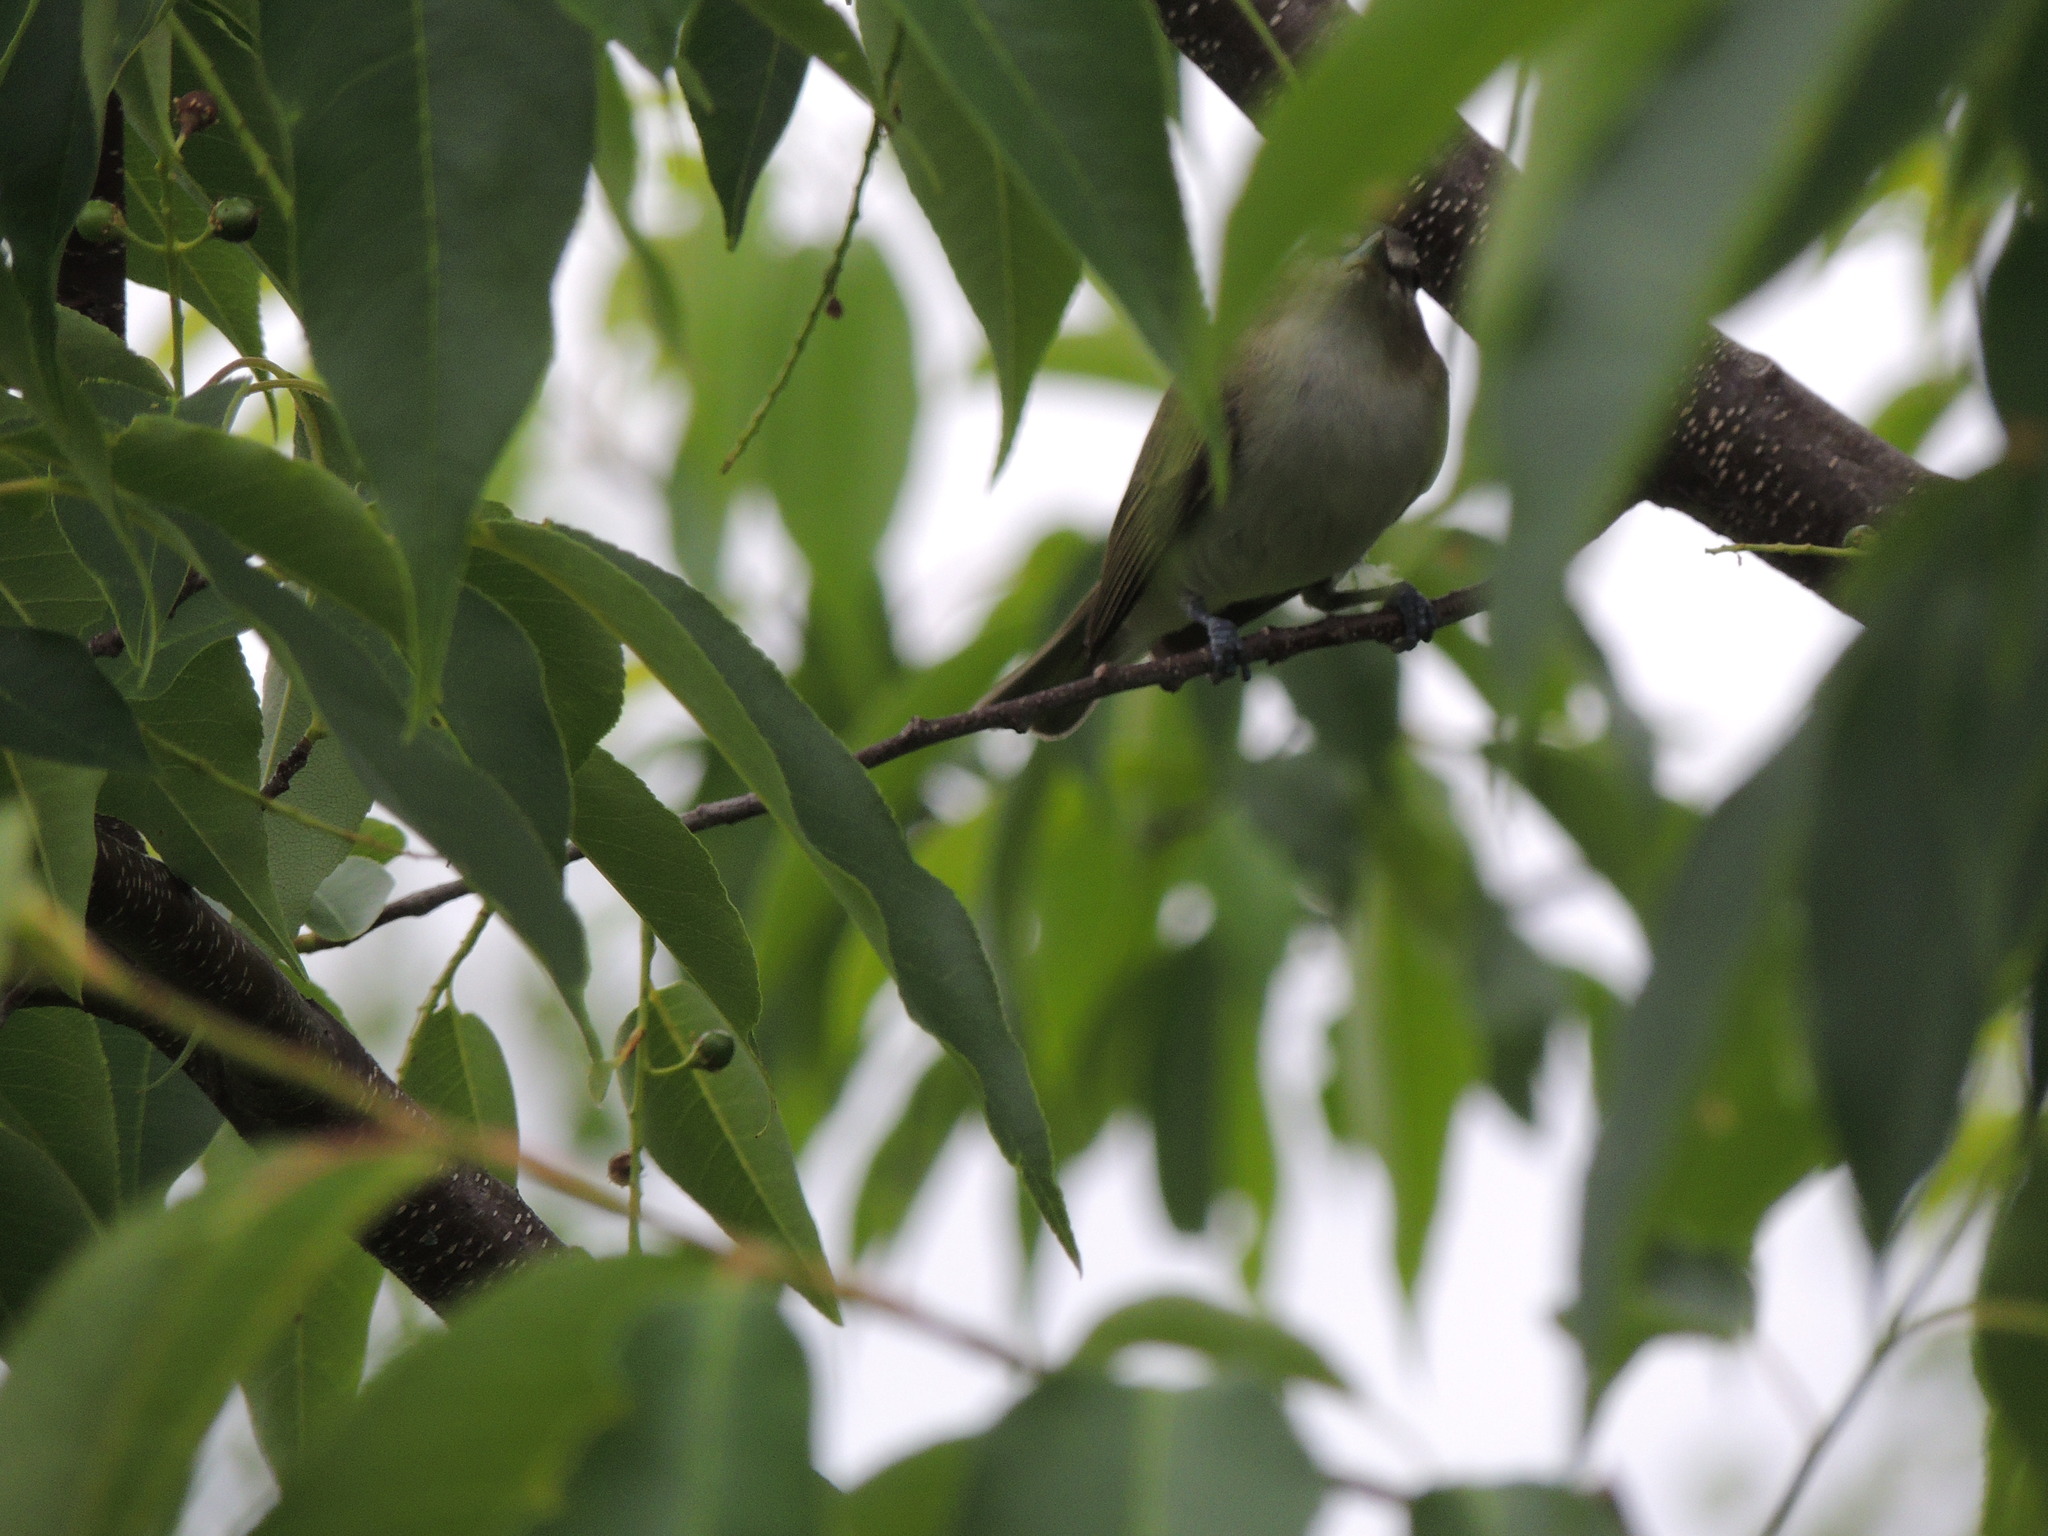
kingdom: Animalia
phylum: Chordata
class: Aves
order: Passeriformes
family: Vireonidae
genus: Vireo
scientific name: Vireo olivaceus
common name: Red-eyed vireo
